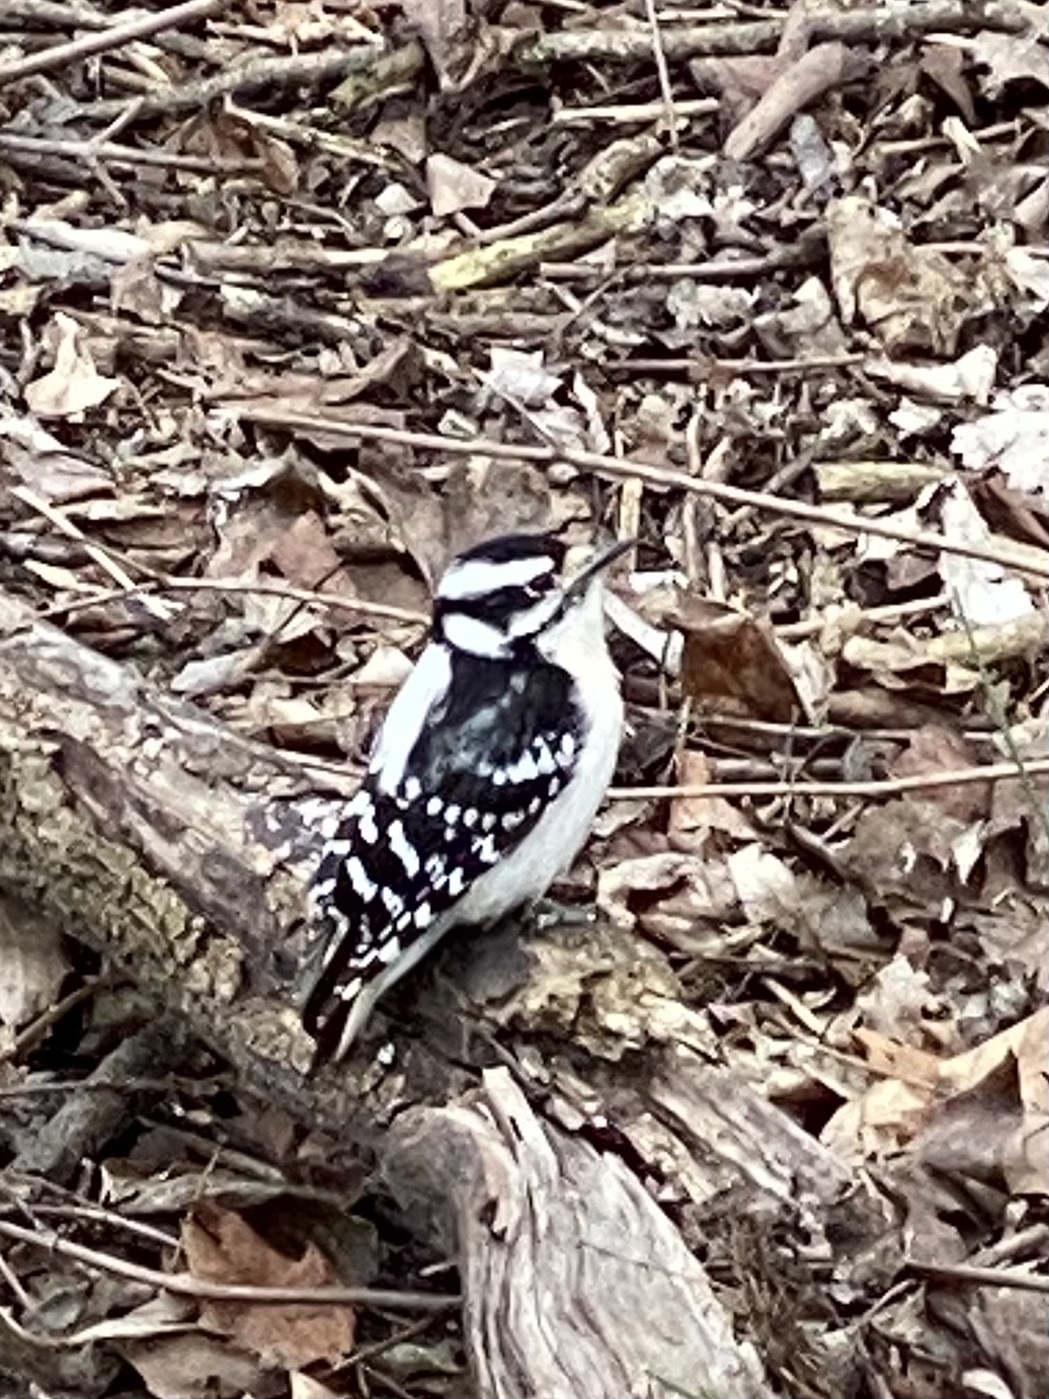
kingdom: Animalia
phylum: Chordata
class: Aves
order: Piciformes
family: Picidae
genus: Dryobates
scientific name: Dryobates pubescens
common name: Downy woodpecker
